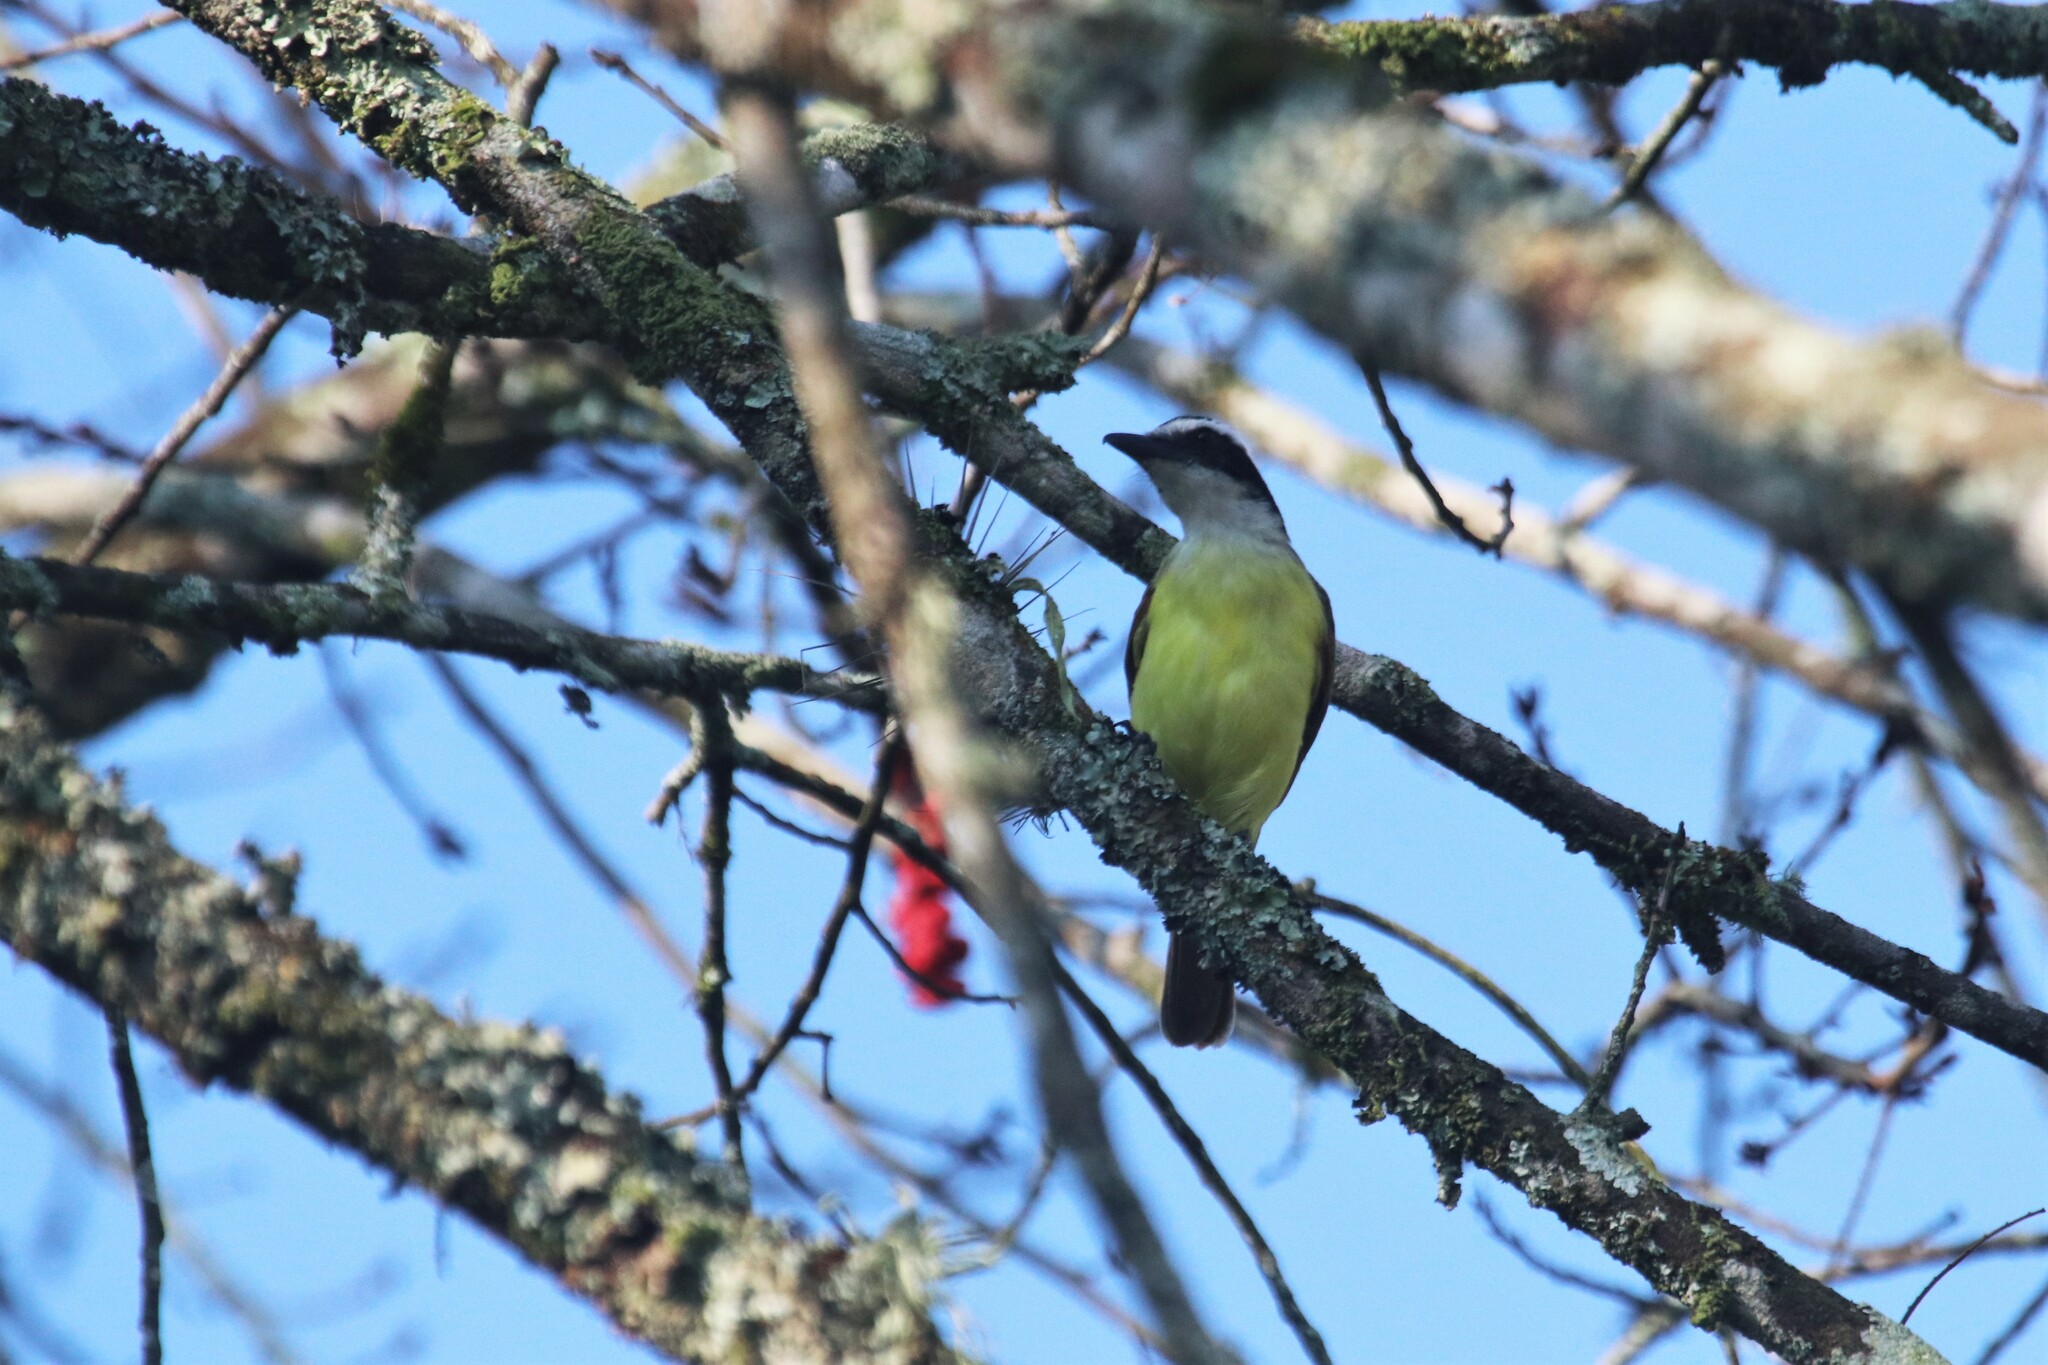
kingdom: Animalia
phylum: Chordata
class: Aves
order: Passeriformes
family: Tyrannidae
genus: Pitangus
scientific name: Pitangus sulphuratus
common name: Great kiskadee
